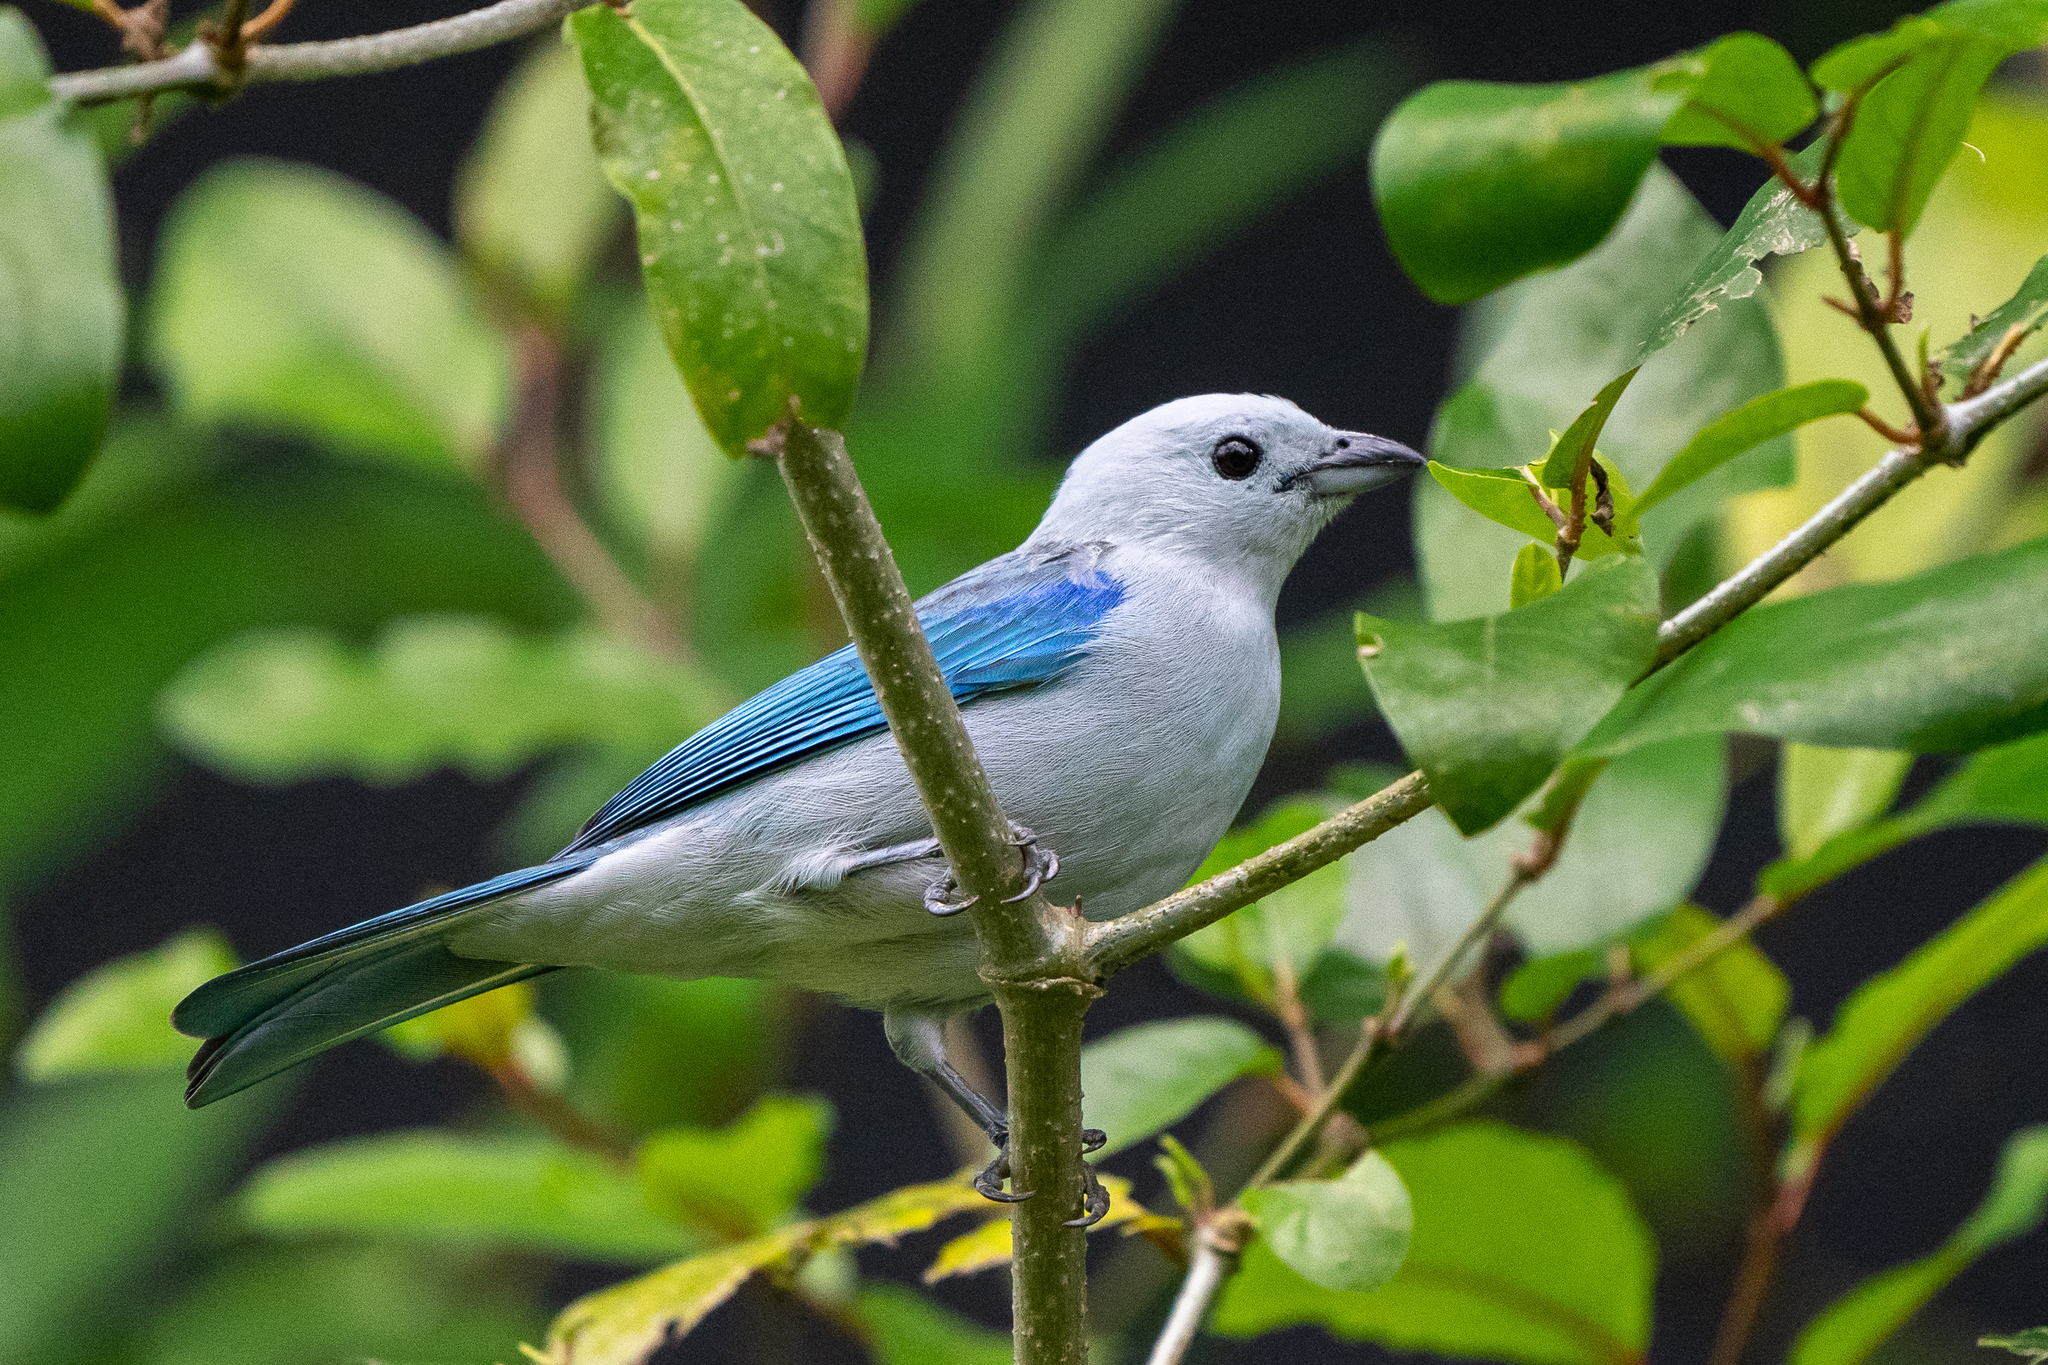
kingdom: Animalia
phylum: Chordata
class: Aves
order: Passeriformes
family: Thraupidae
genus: Thraupis
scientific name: Thraupis episcopus
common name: Blue-grey tanager
